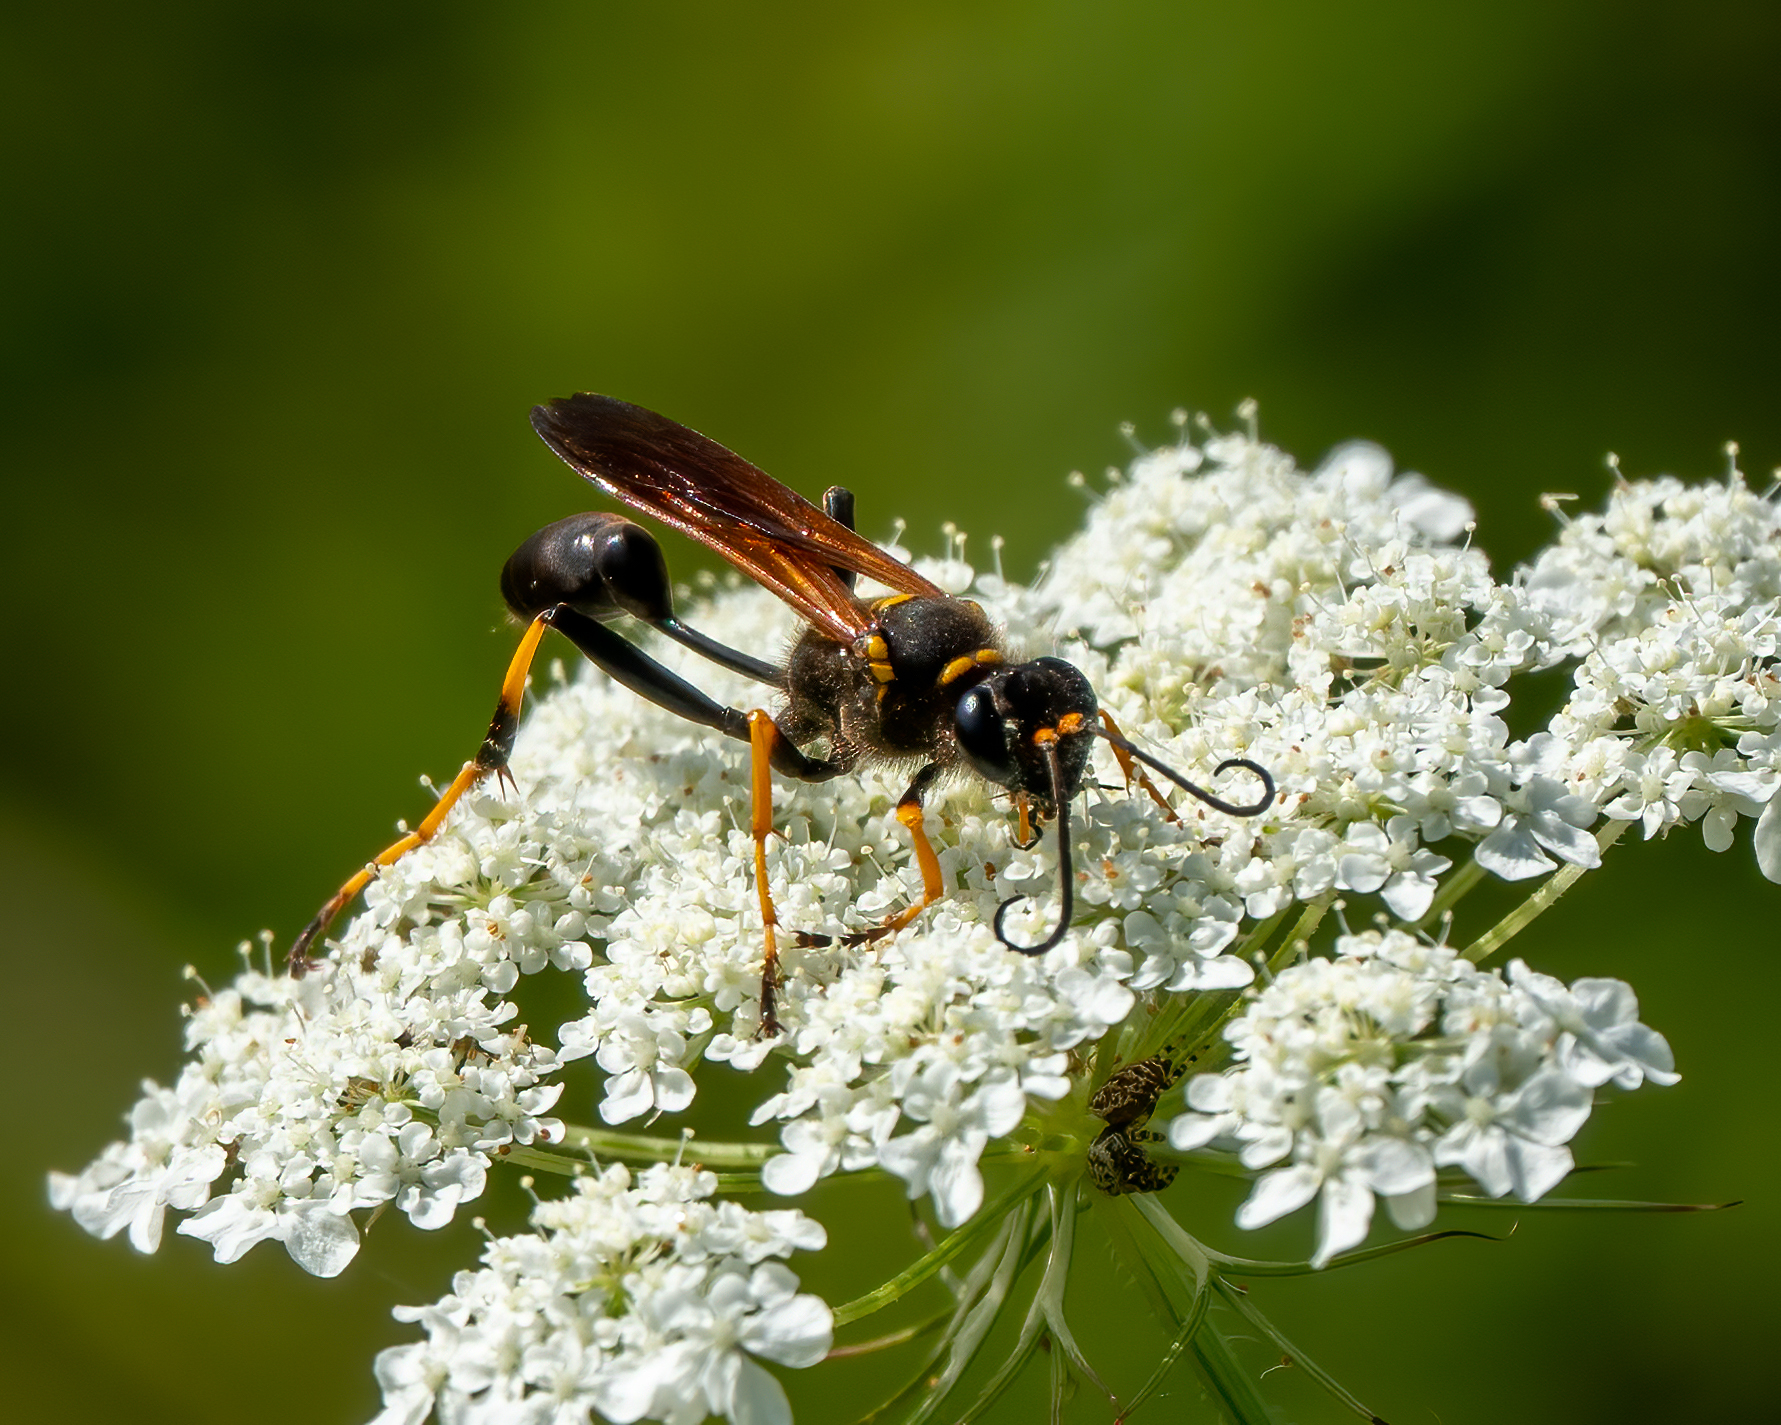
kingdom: Animalia
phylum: Arthropoda
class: Insecta
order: Hymenoptera
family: Sphecidae
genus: Sceliphron
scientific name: Sceliphron caementarium
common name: Mud dauber
